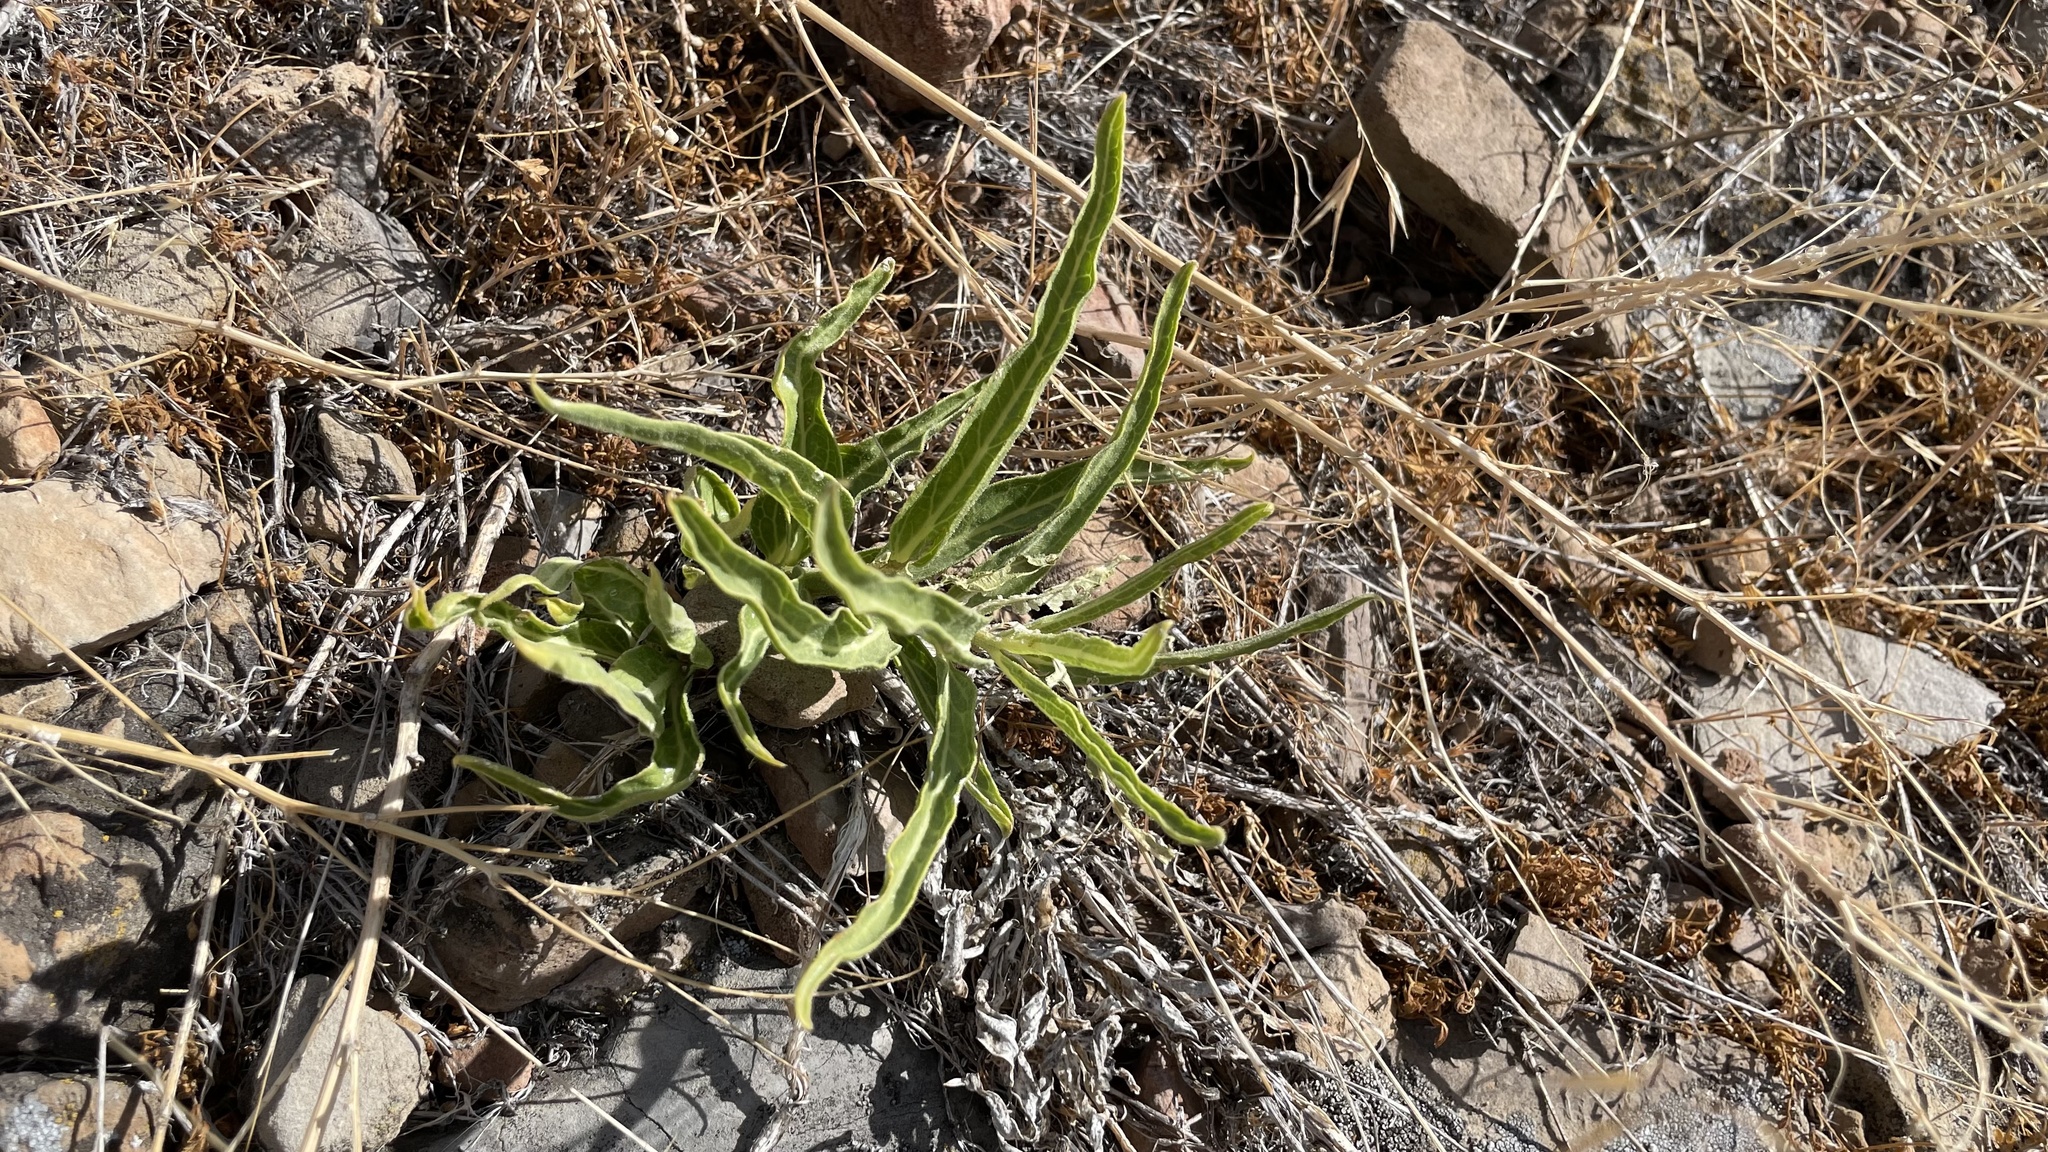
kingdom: Plantae
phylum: Tracheophyta
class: Magnoliopsida
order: Gentianales
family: Apocynaceae
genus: Asclepias
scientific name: Asclepias asperula
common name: Antelope horns
